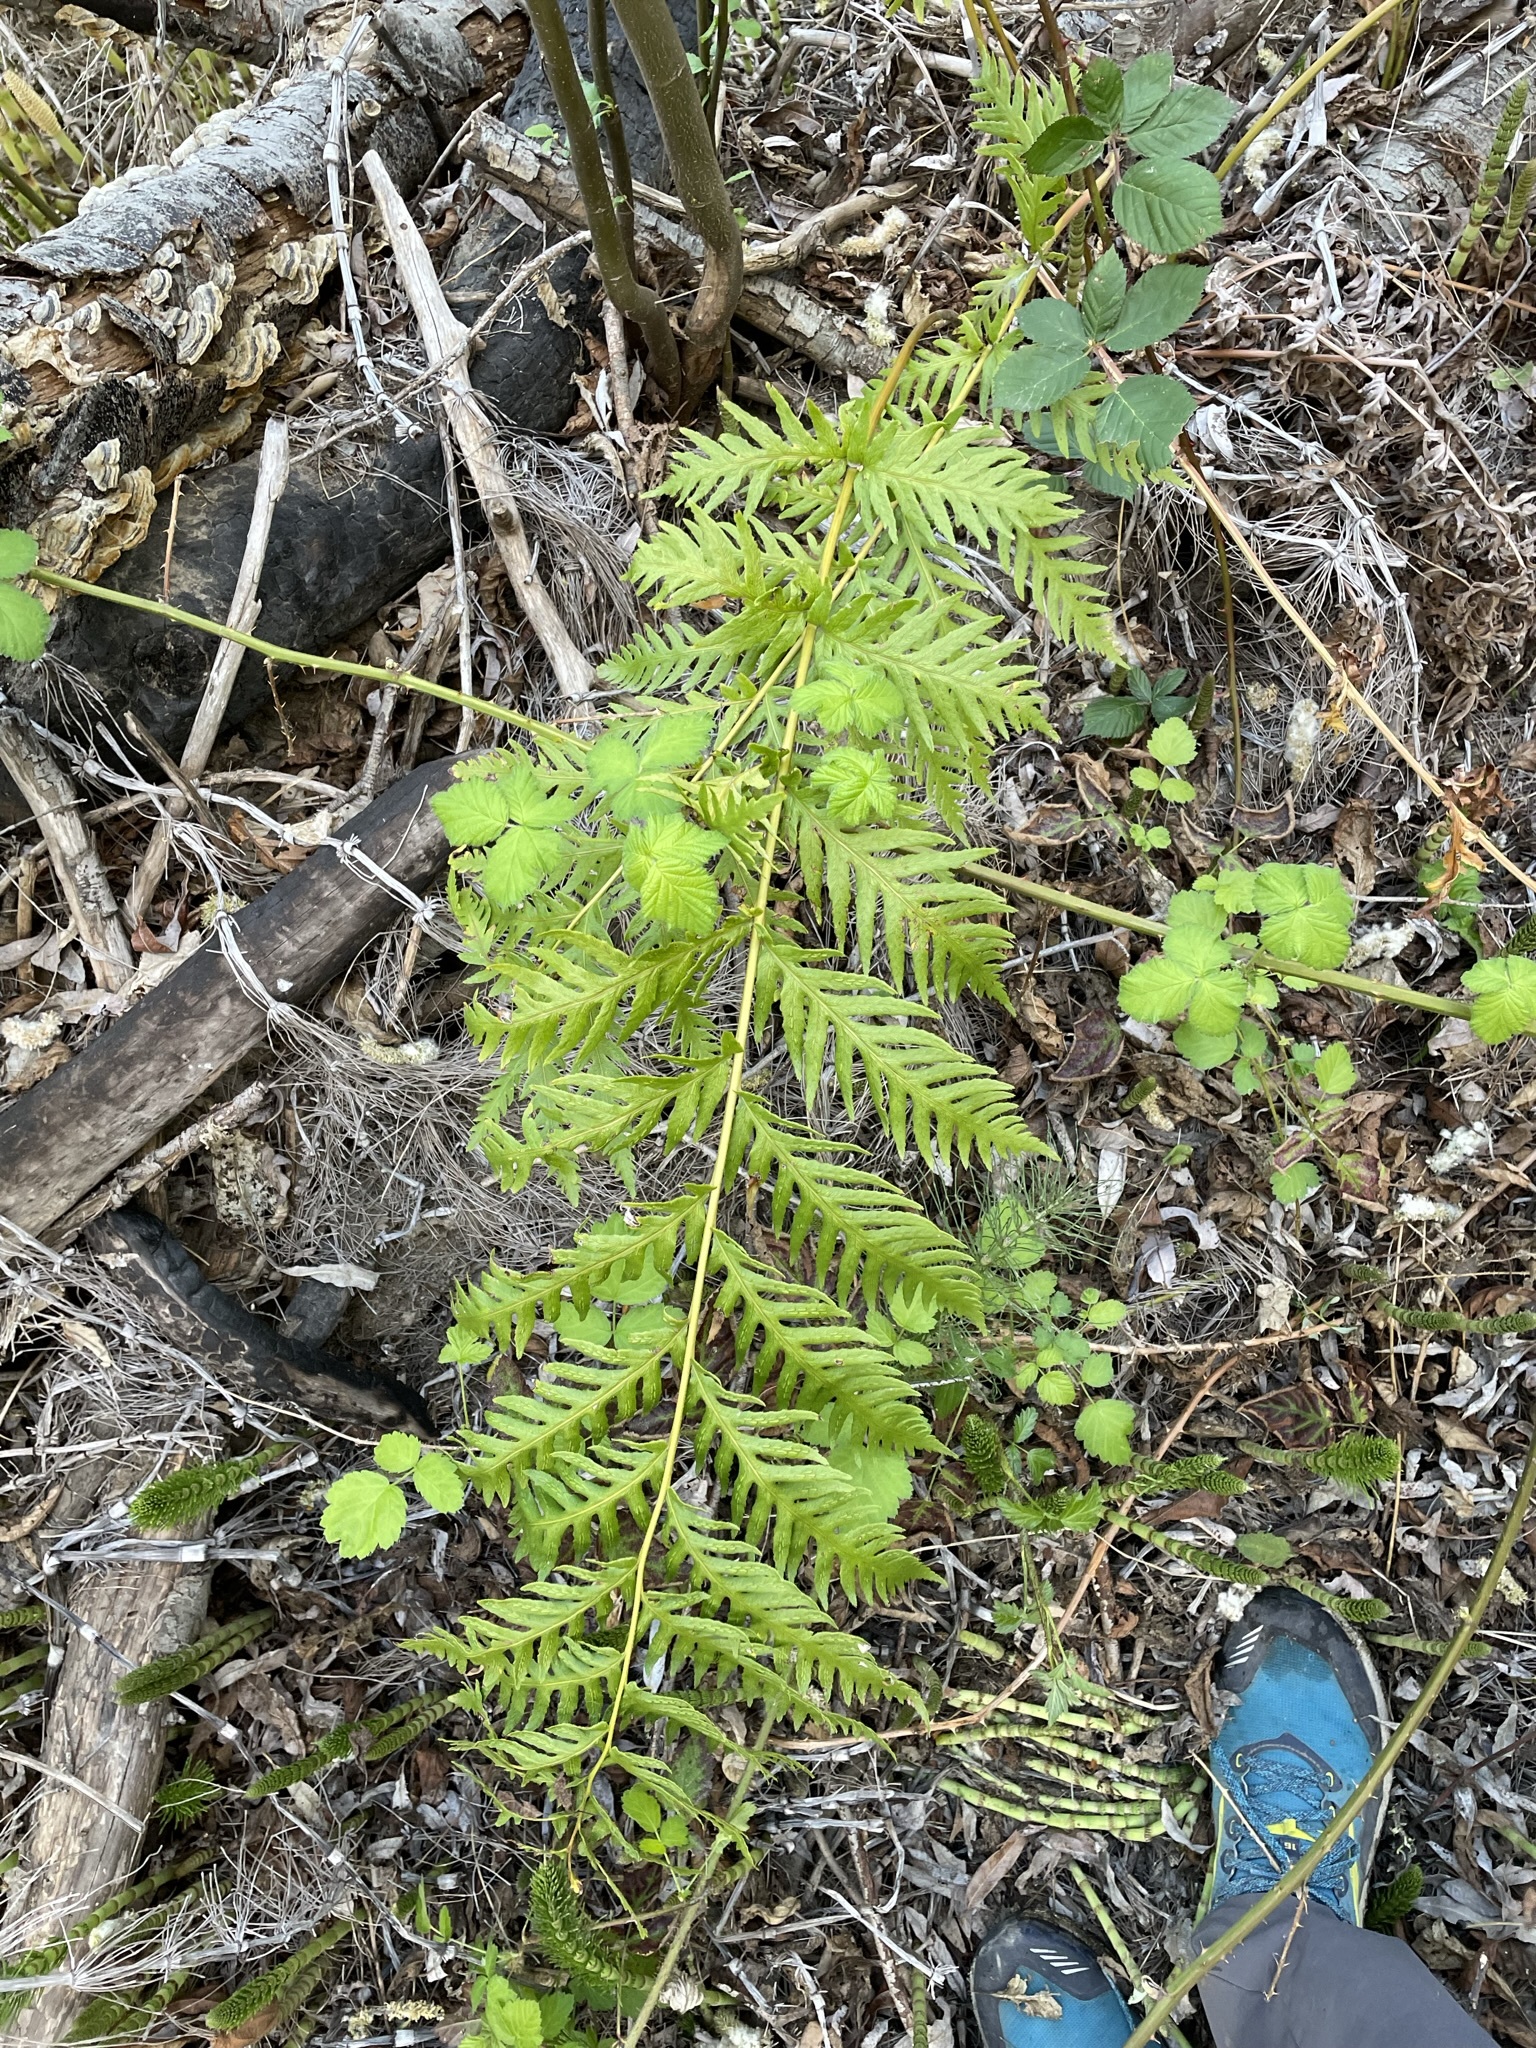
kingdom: Plantae
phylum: Tracheophyta
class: Polypodiopsida
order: Polypodiales
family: Blechnaceae
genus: Woodwardia
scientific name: Woodwardia fimbriata
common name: Giant chain fern
